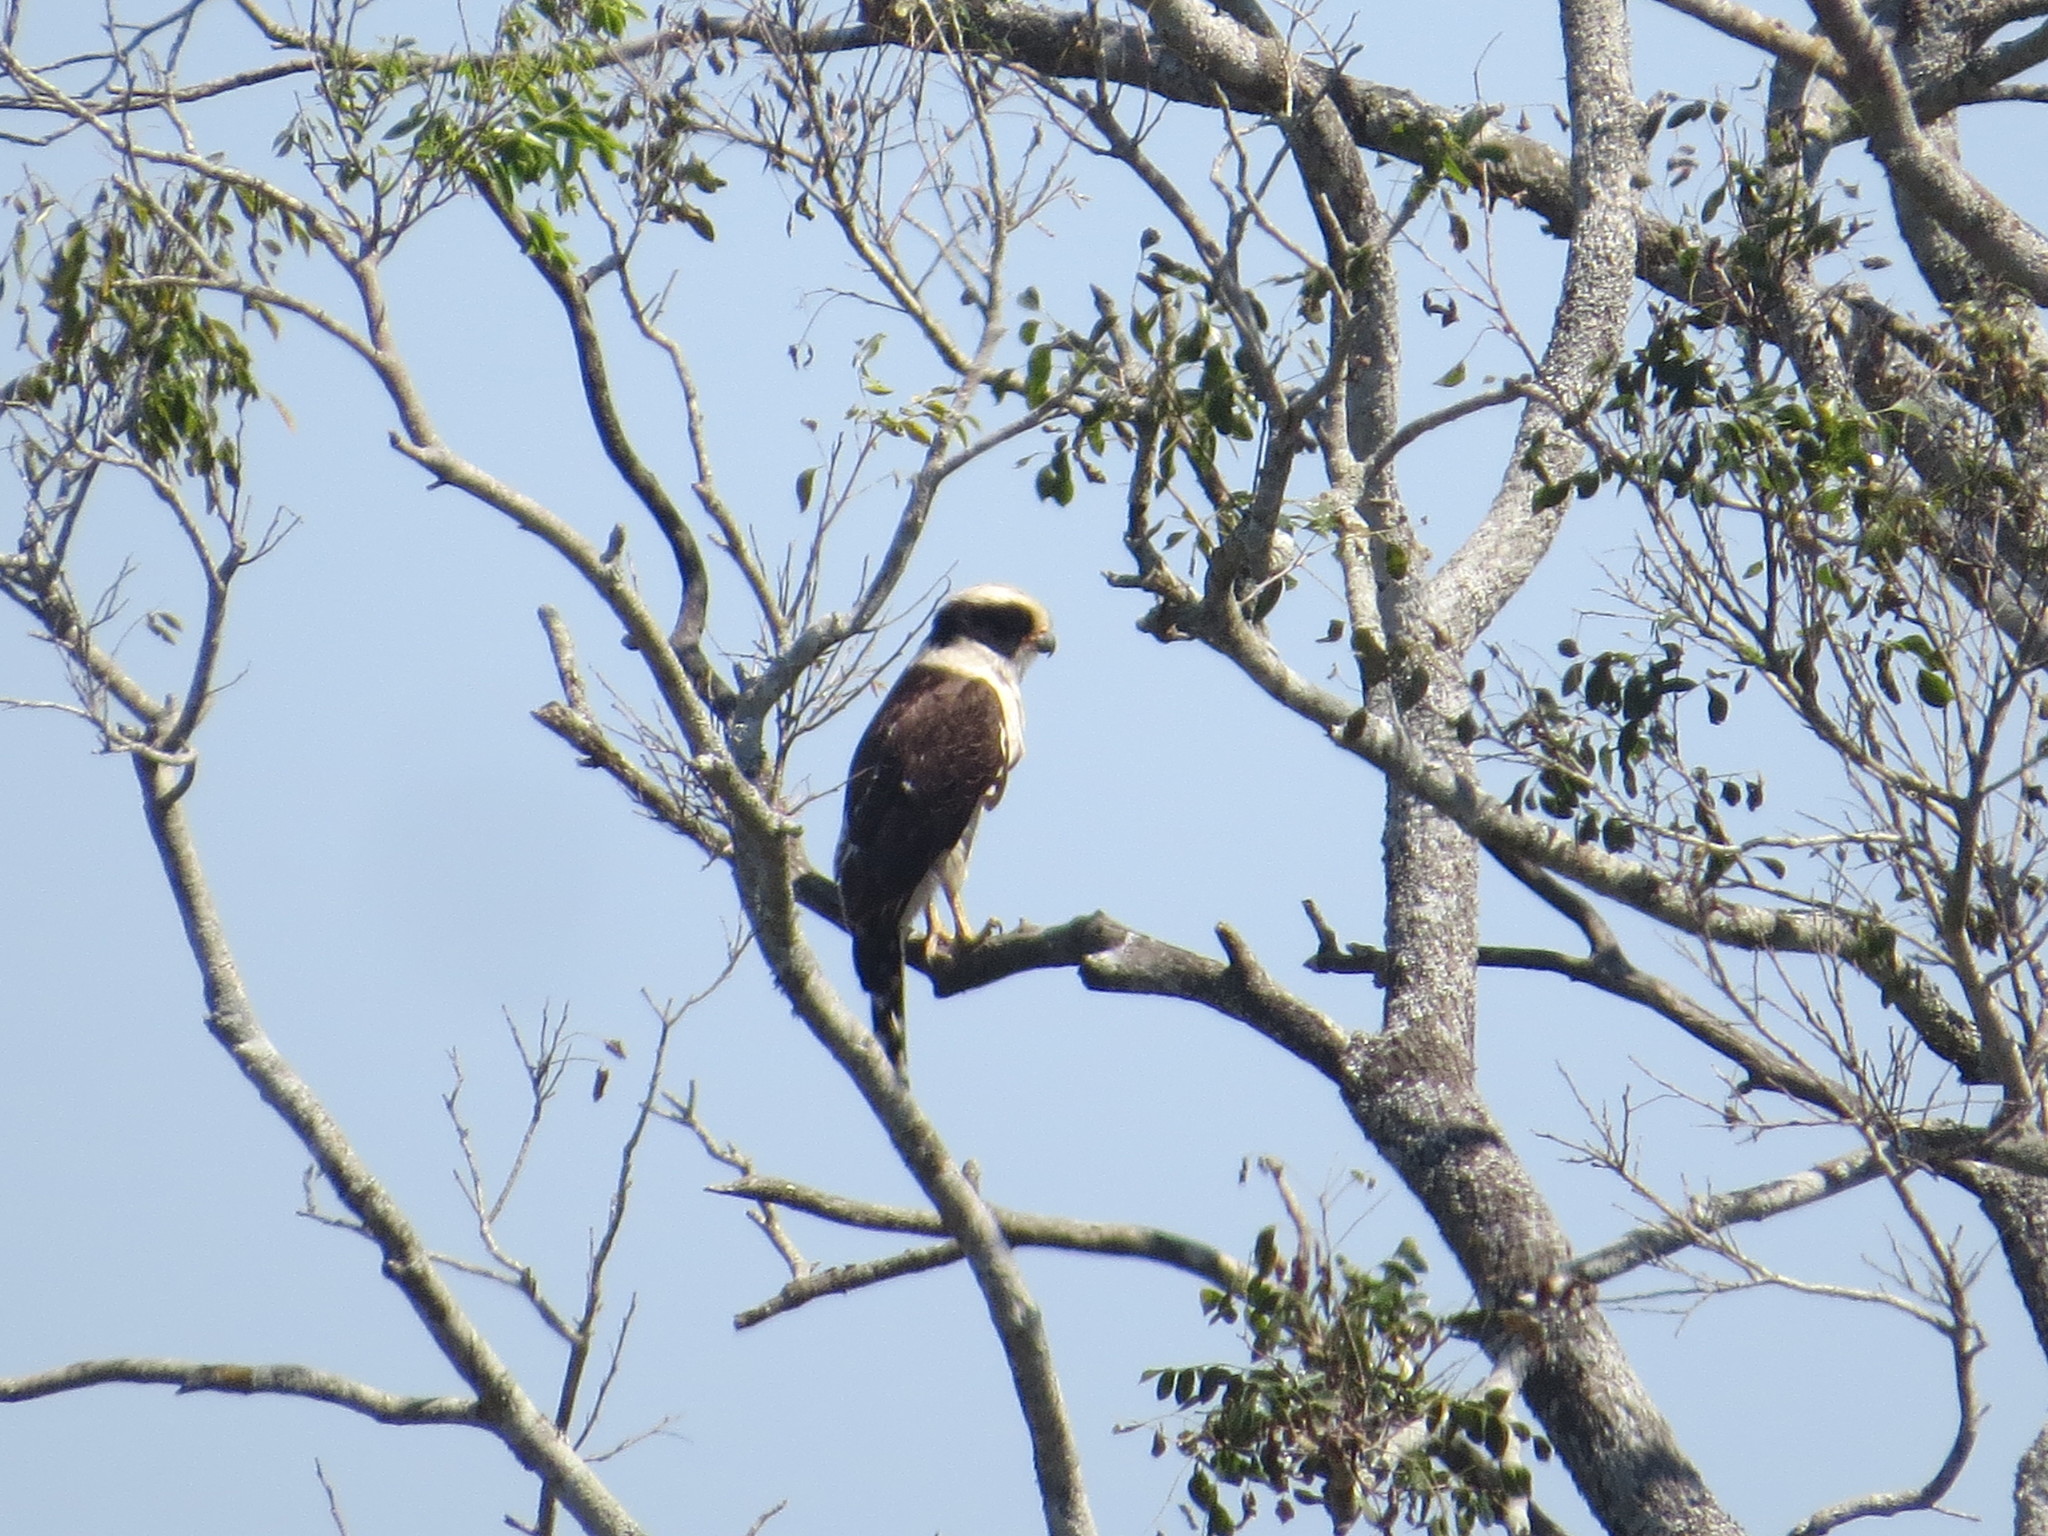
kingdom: Animalia
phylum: Chordata
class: Aves
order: Falconiformes
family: Falconidae
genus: Herpetotheres
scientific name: Herpetotheres cachinnans
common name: Laughing falcon
